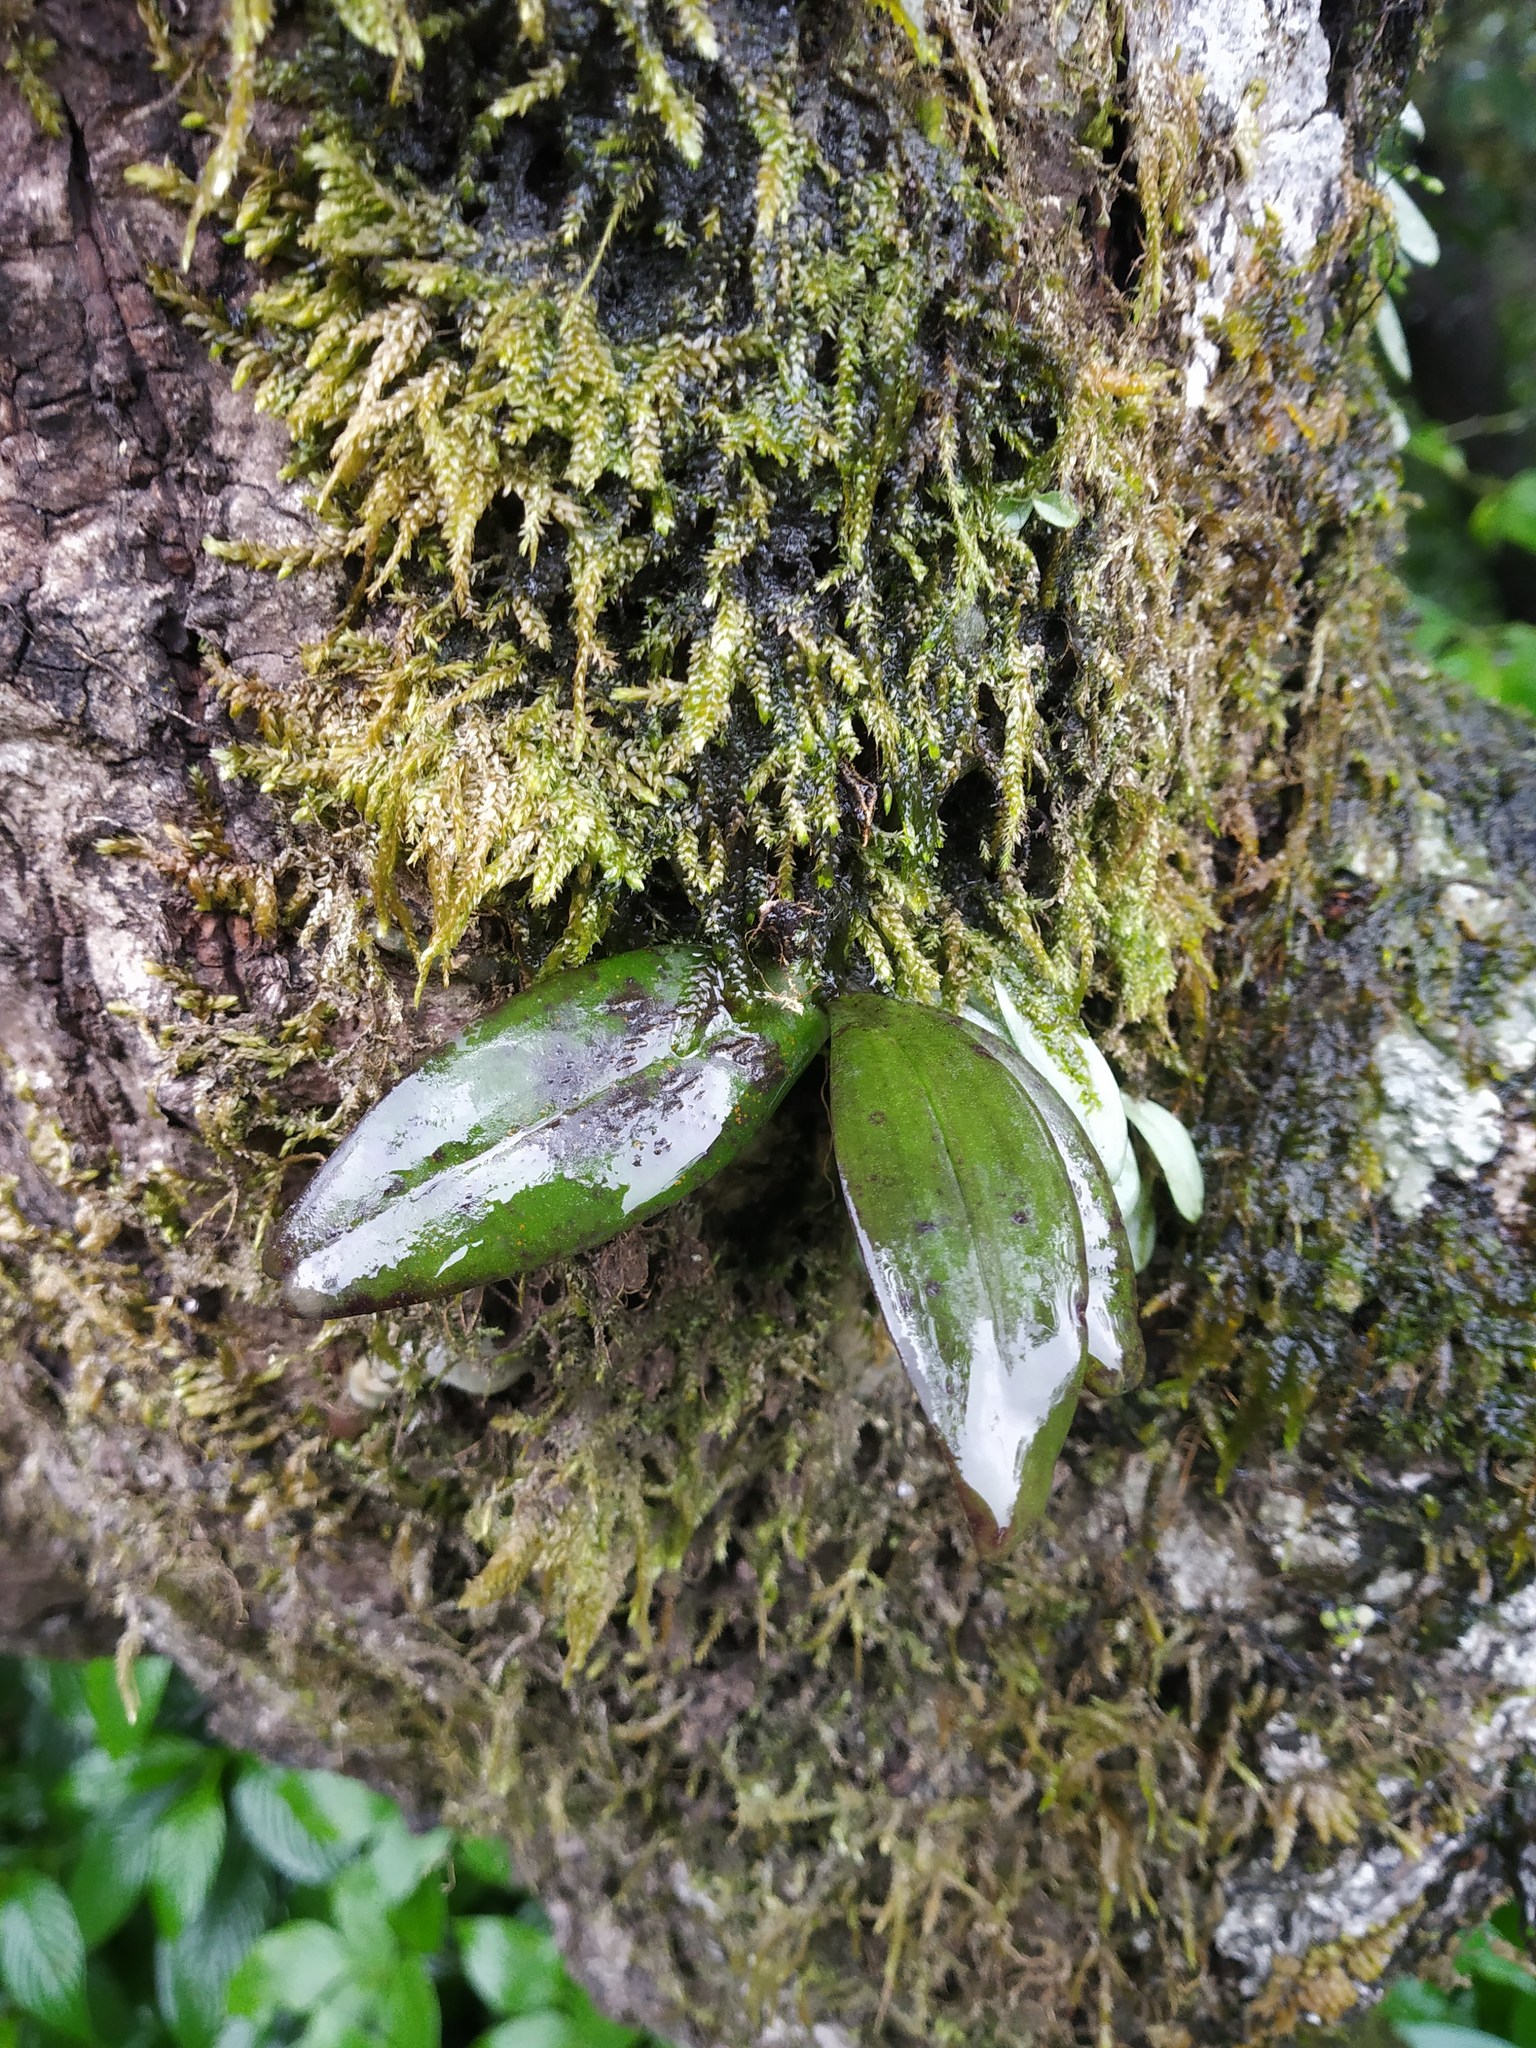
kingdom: Plantae
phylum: Tracheophyta
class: Liliopsida
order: Asparagales
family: Orchidaceae
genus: Smithsonia
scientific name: Smithsonia straminea
